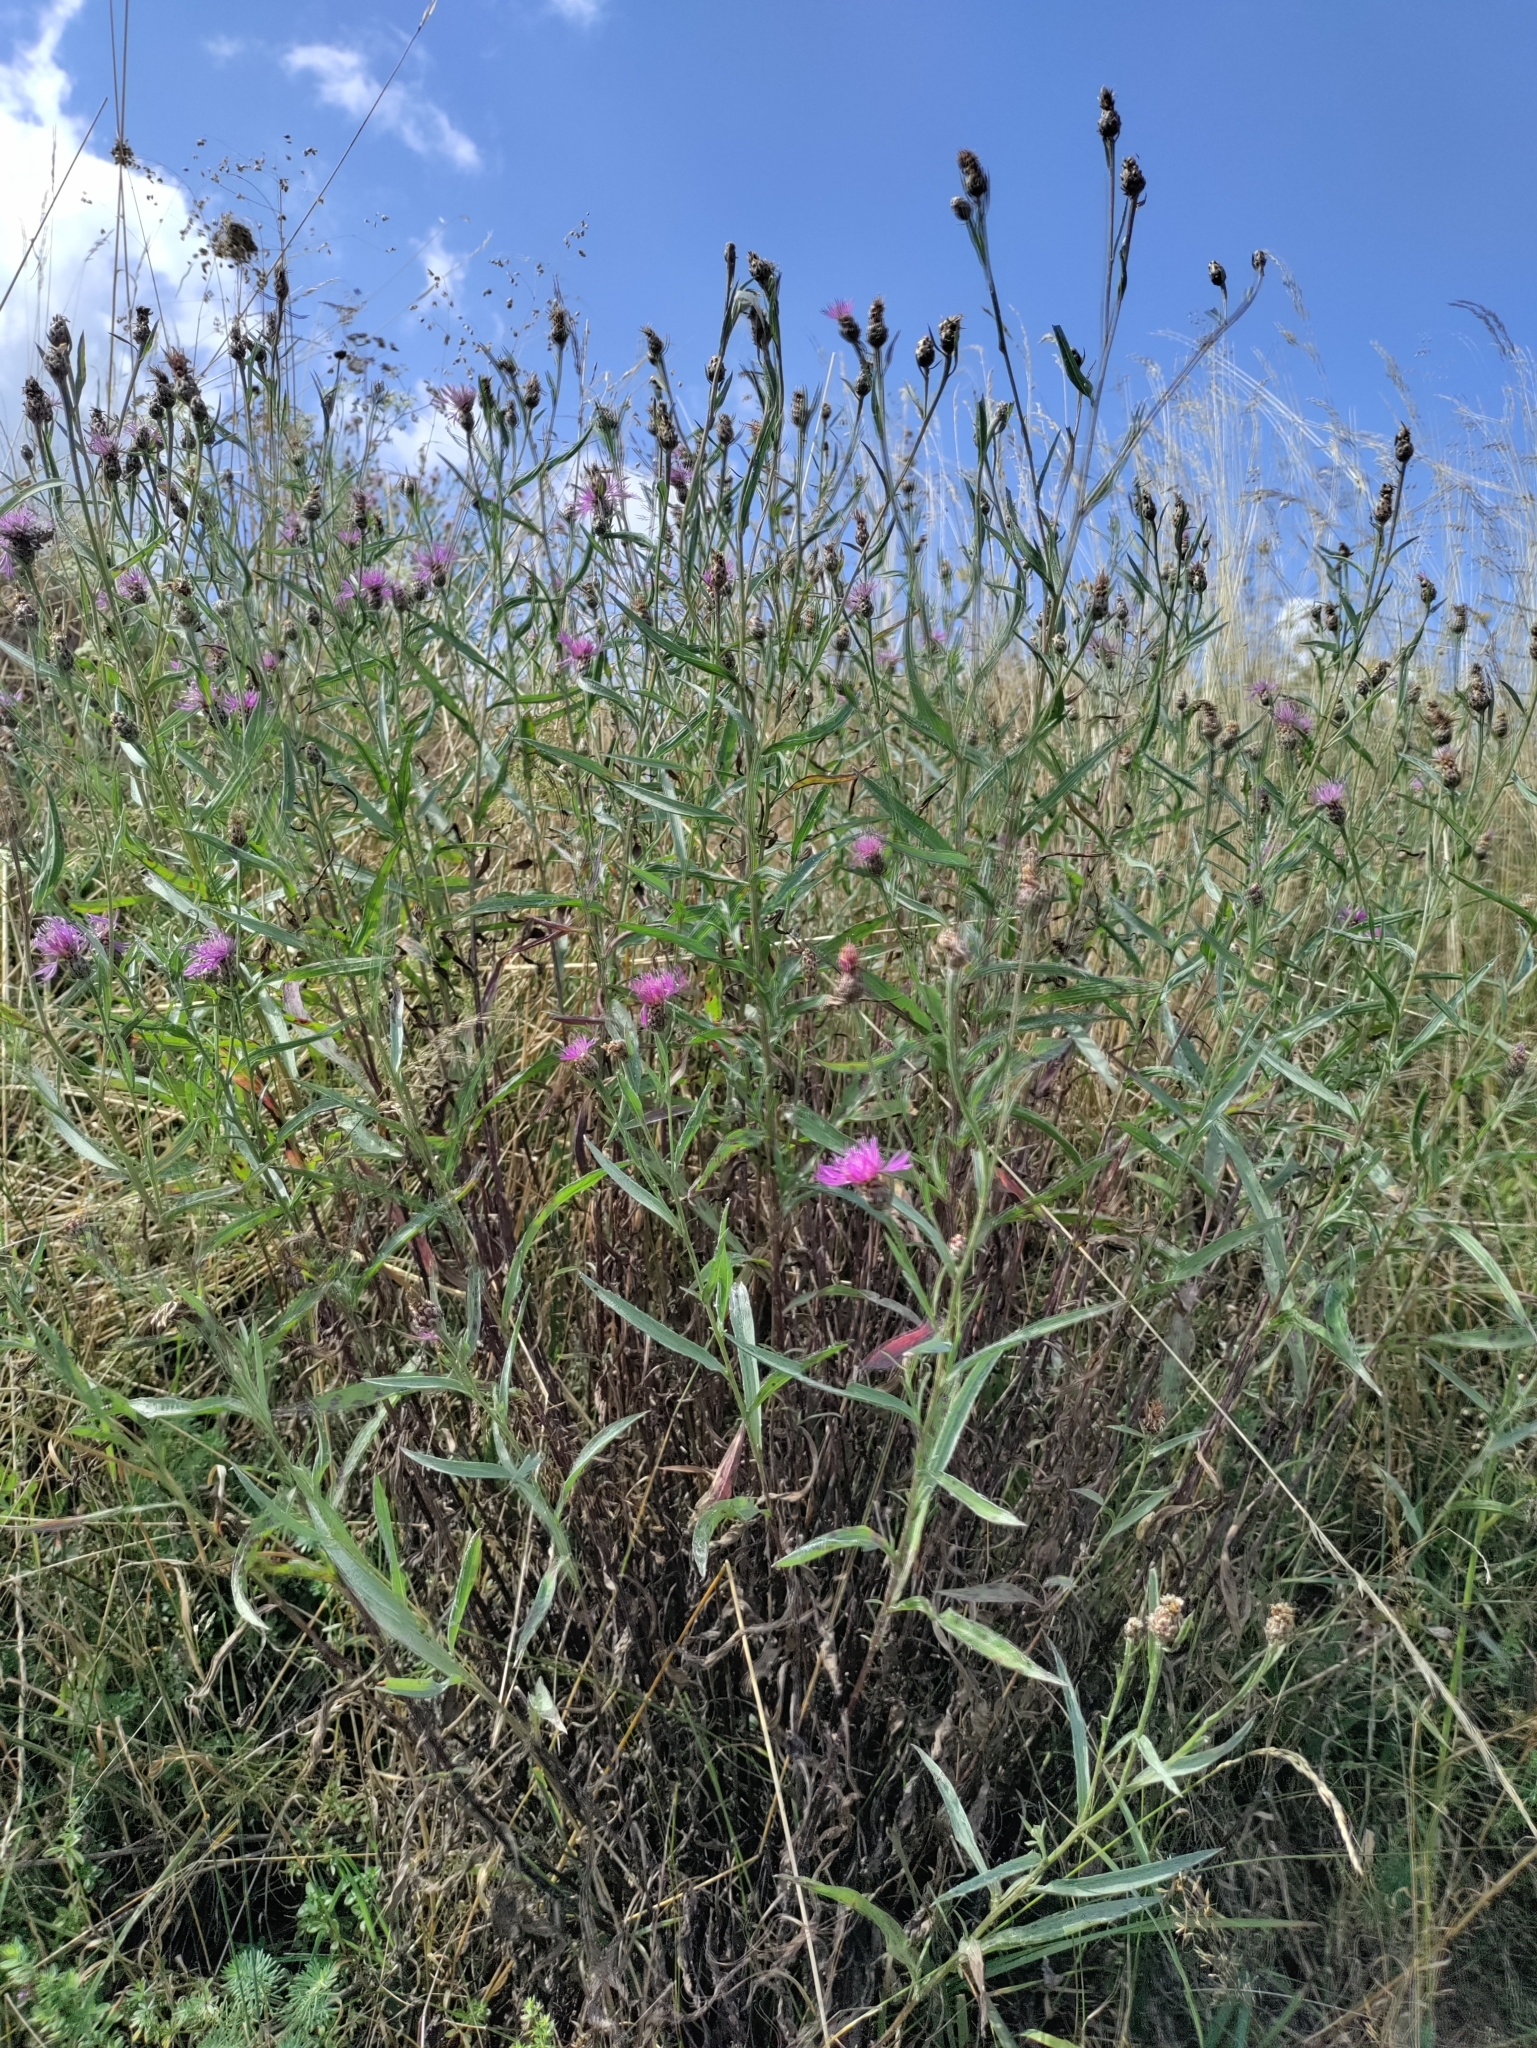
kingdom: Plantae
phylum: Tracheophyta
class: Magnoliopsida
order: Asterales
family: Asteraceae
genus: Centaurea
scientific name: Centaurea jacea
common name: Brown knapweed
